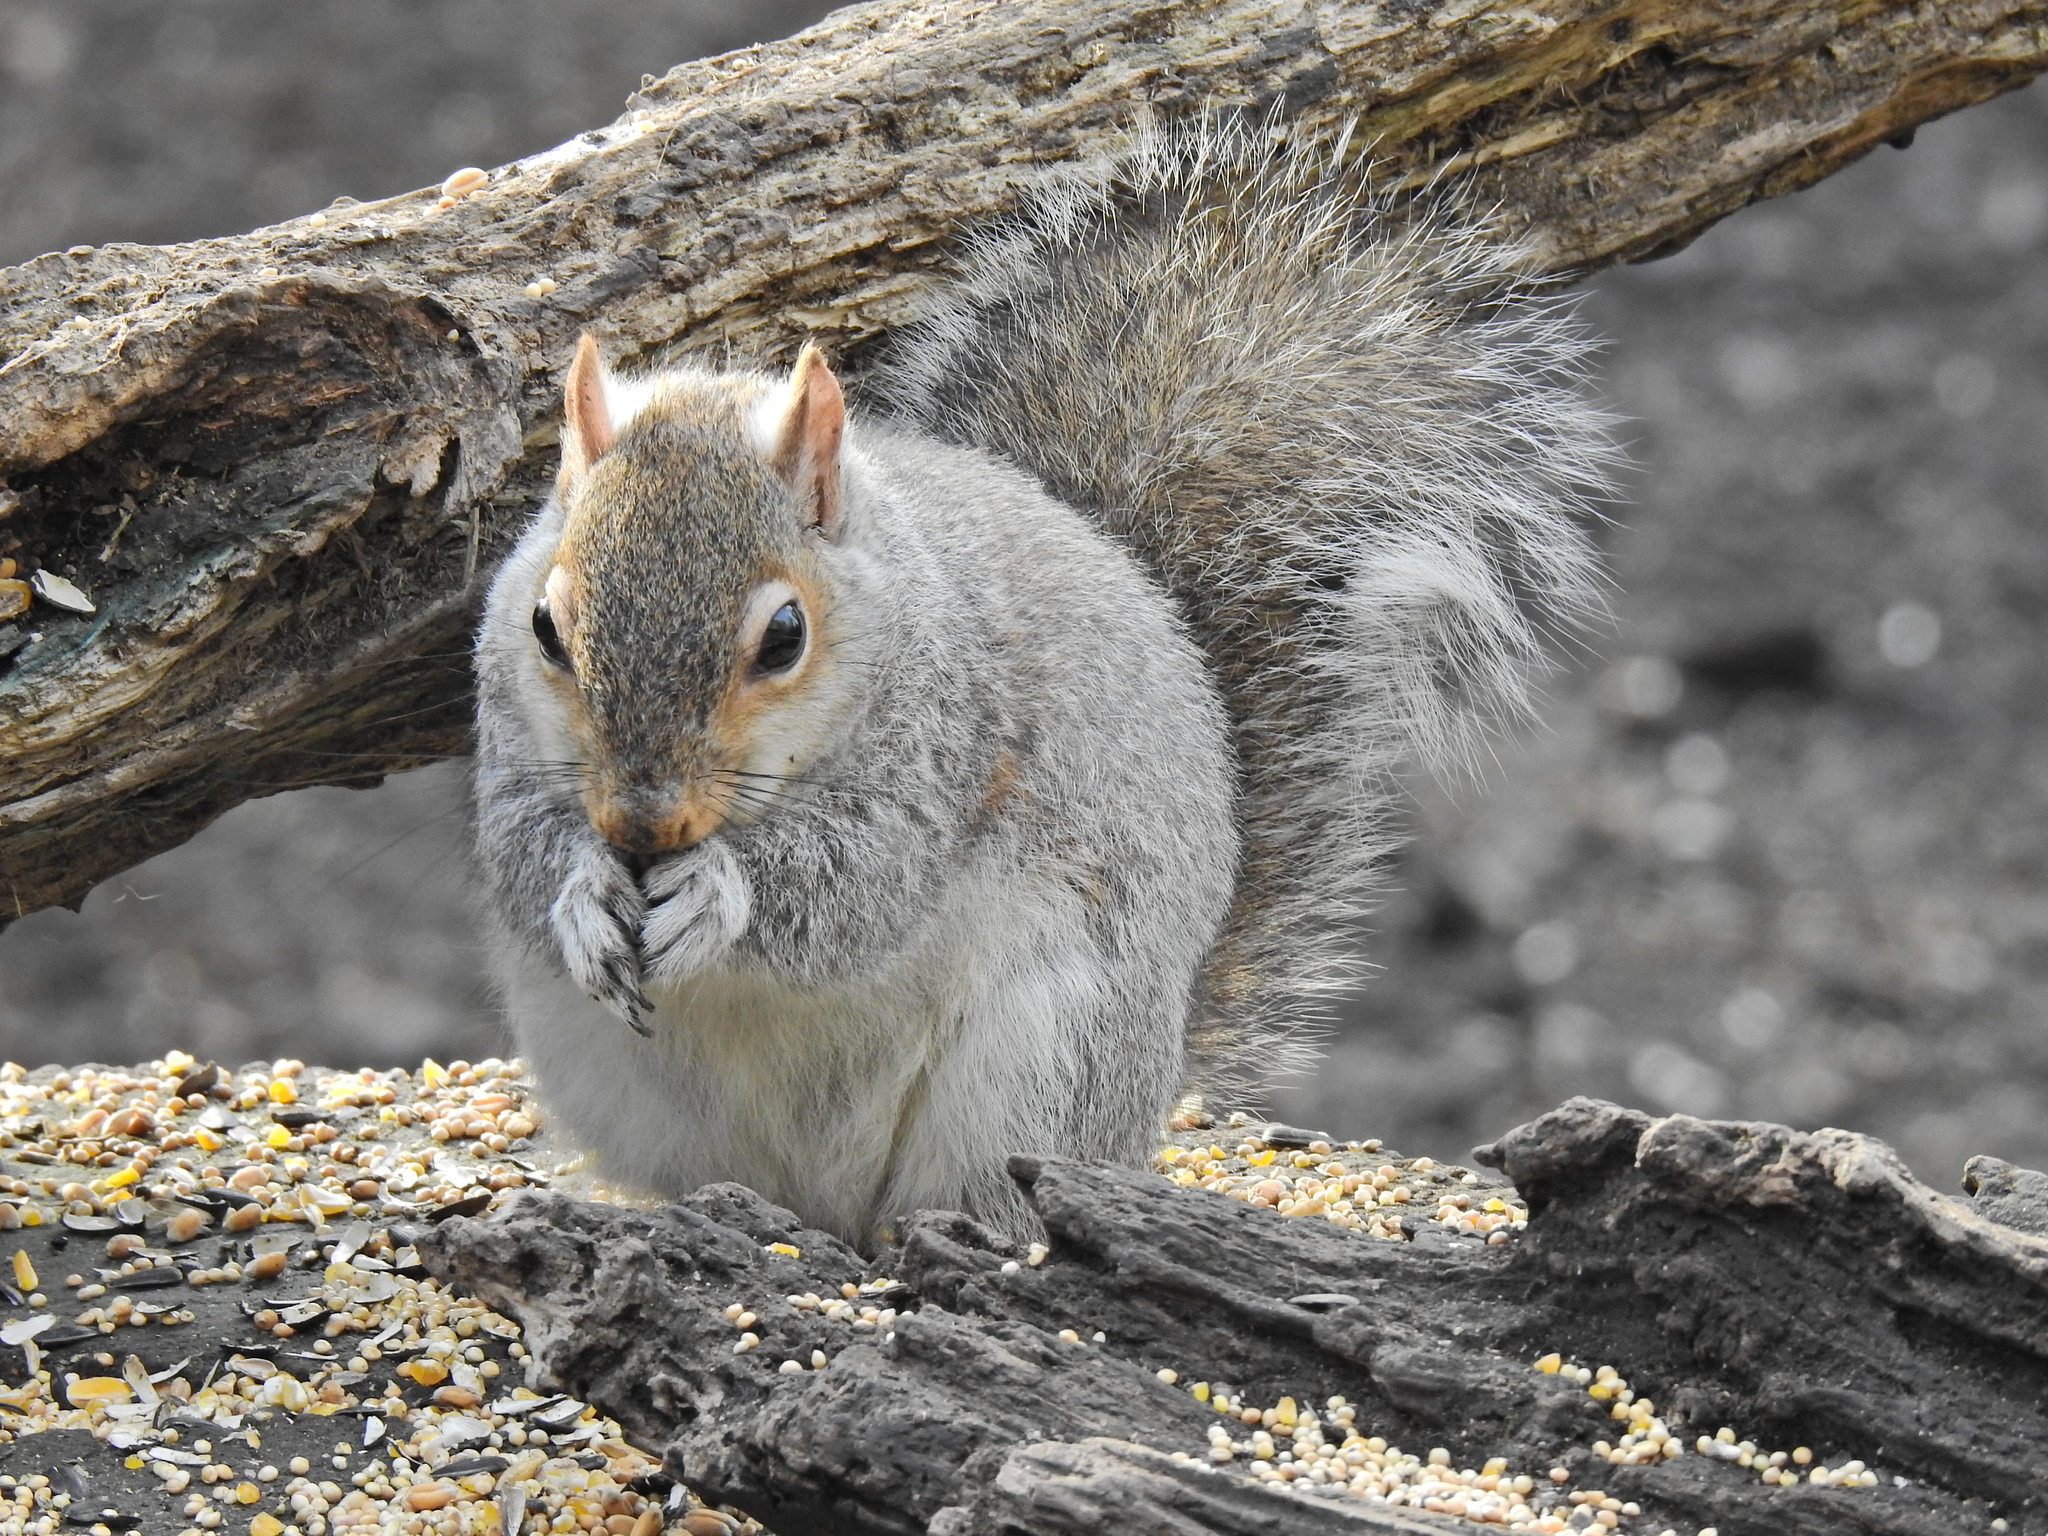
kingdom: Animalia
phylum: Chordata
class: Mammalia
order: Rodentia
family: Sciuridae
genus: Sciurus
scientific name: Sciurus carolinensis
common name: Eastern gray squirrel
